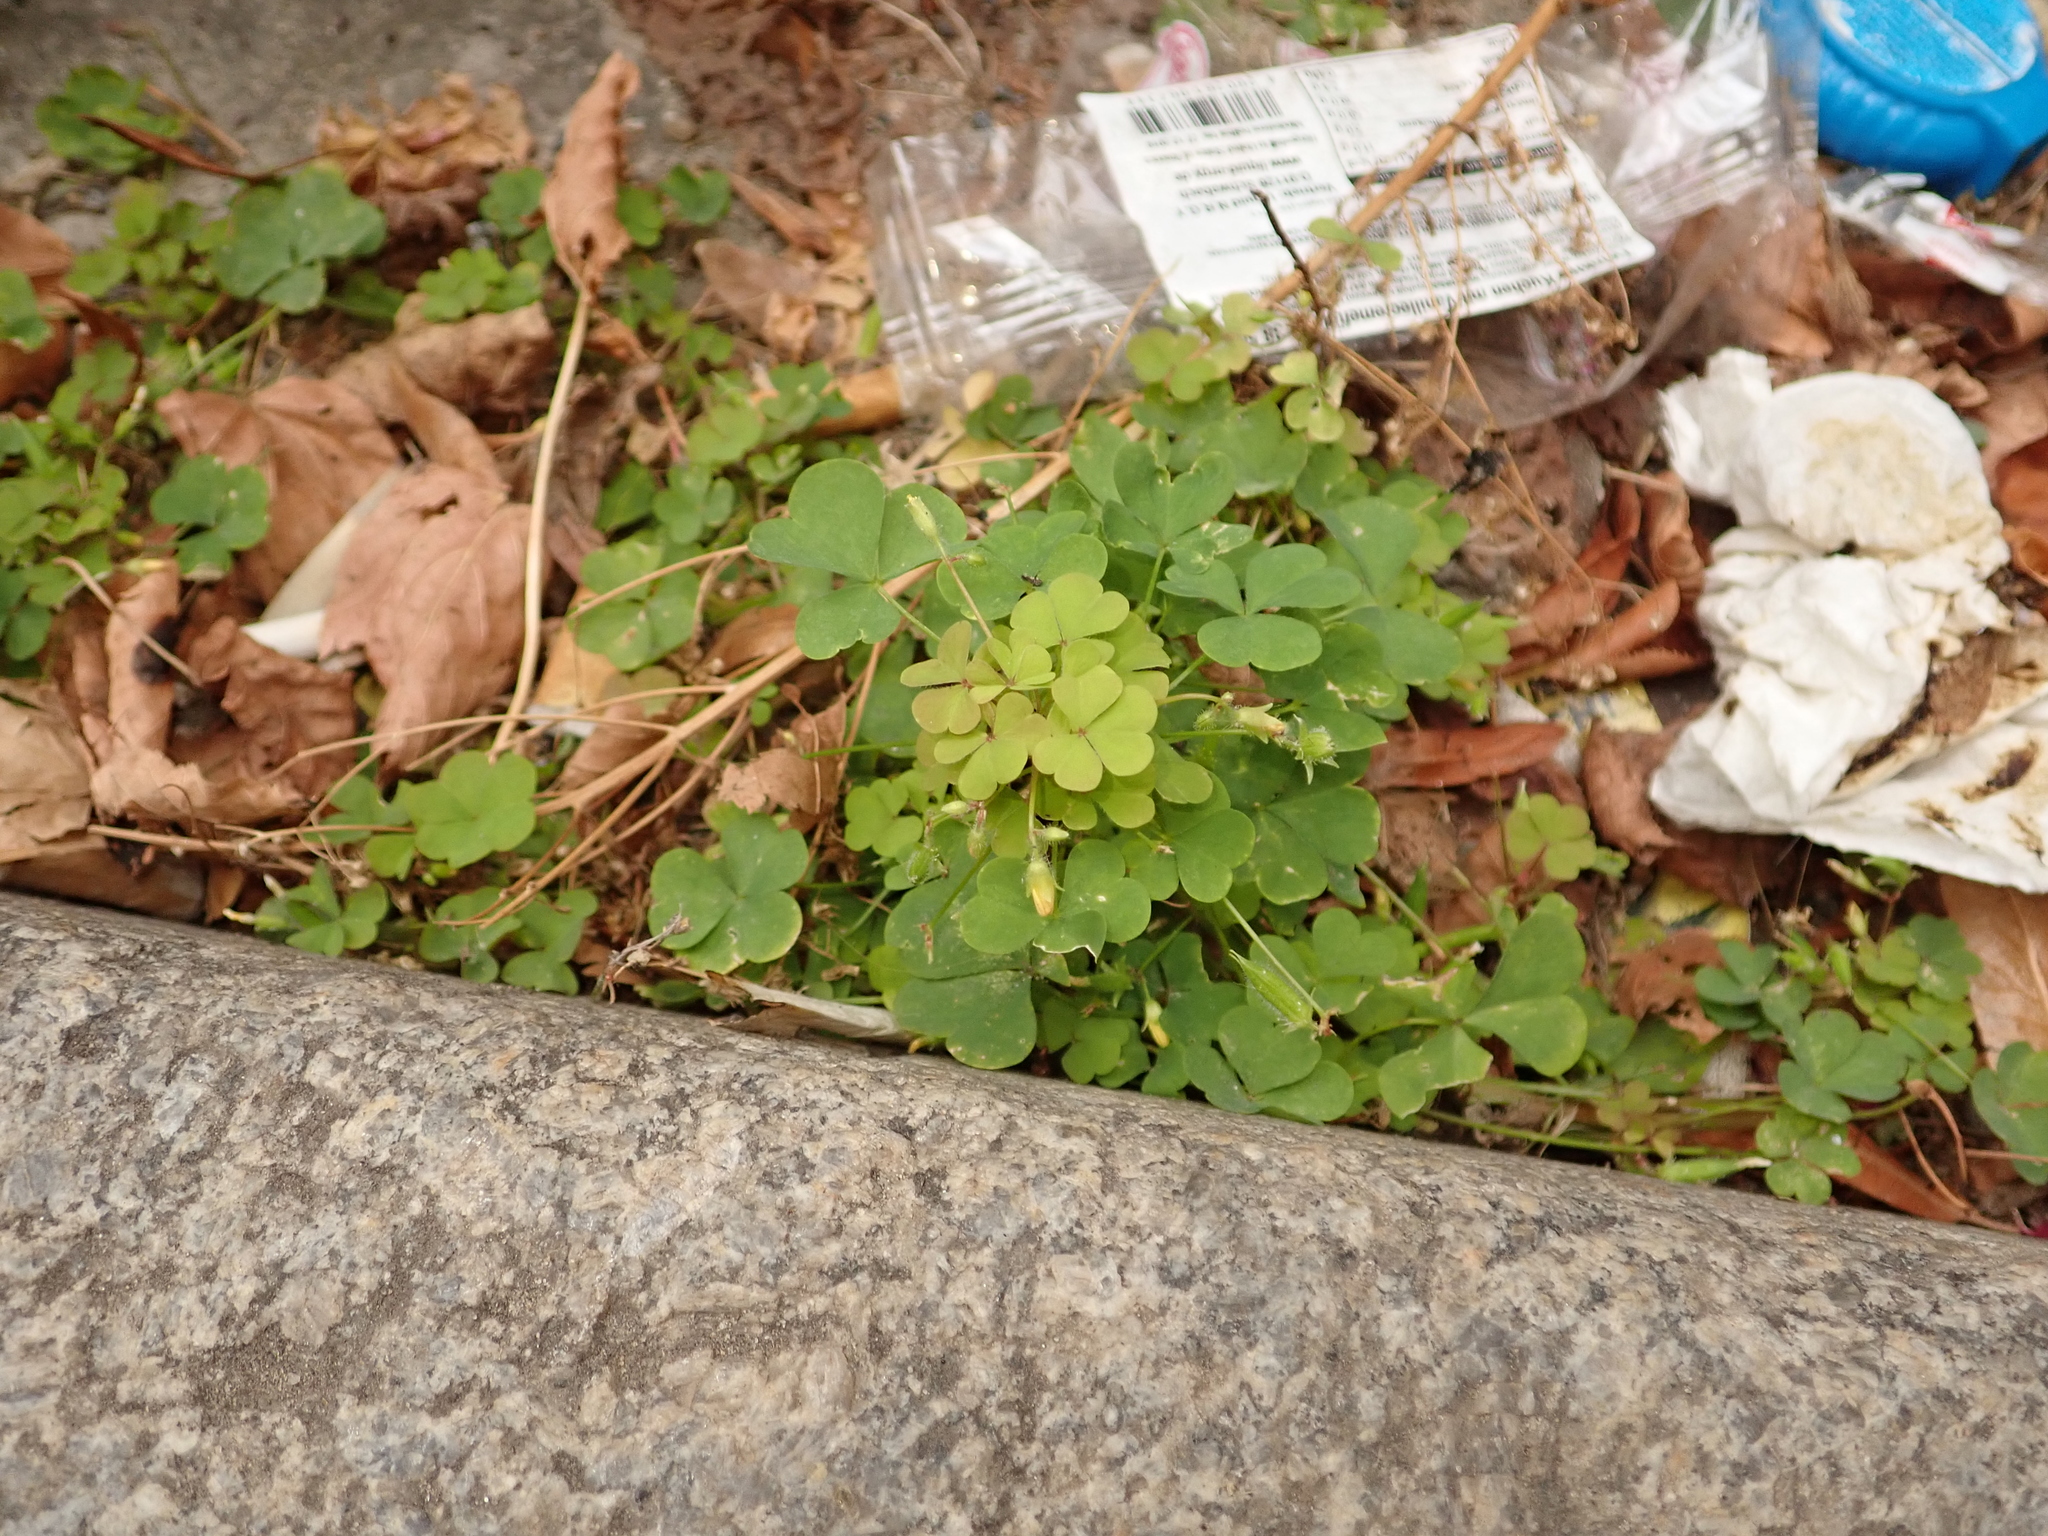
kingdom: Plantae
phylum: Tracheophyta
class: Magnoliopsida
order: Oxalidales
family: Oxalidaceae
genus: Oxalis
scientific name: Oxalis stricta
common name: Upright yellow-sorrel
